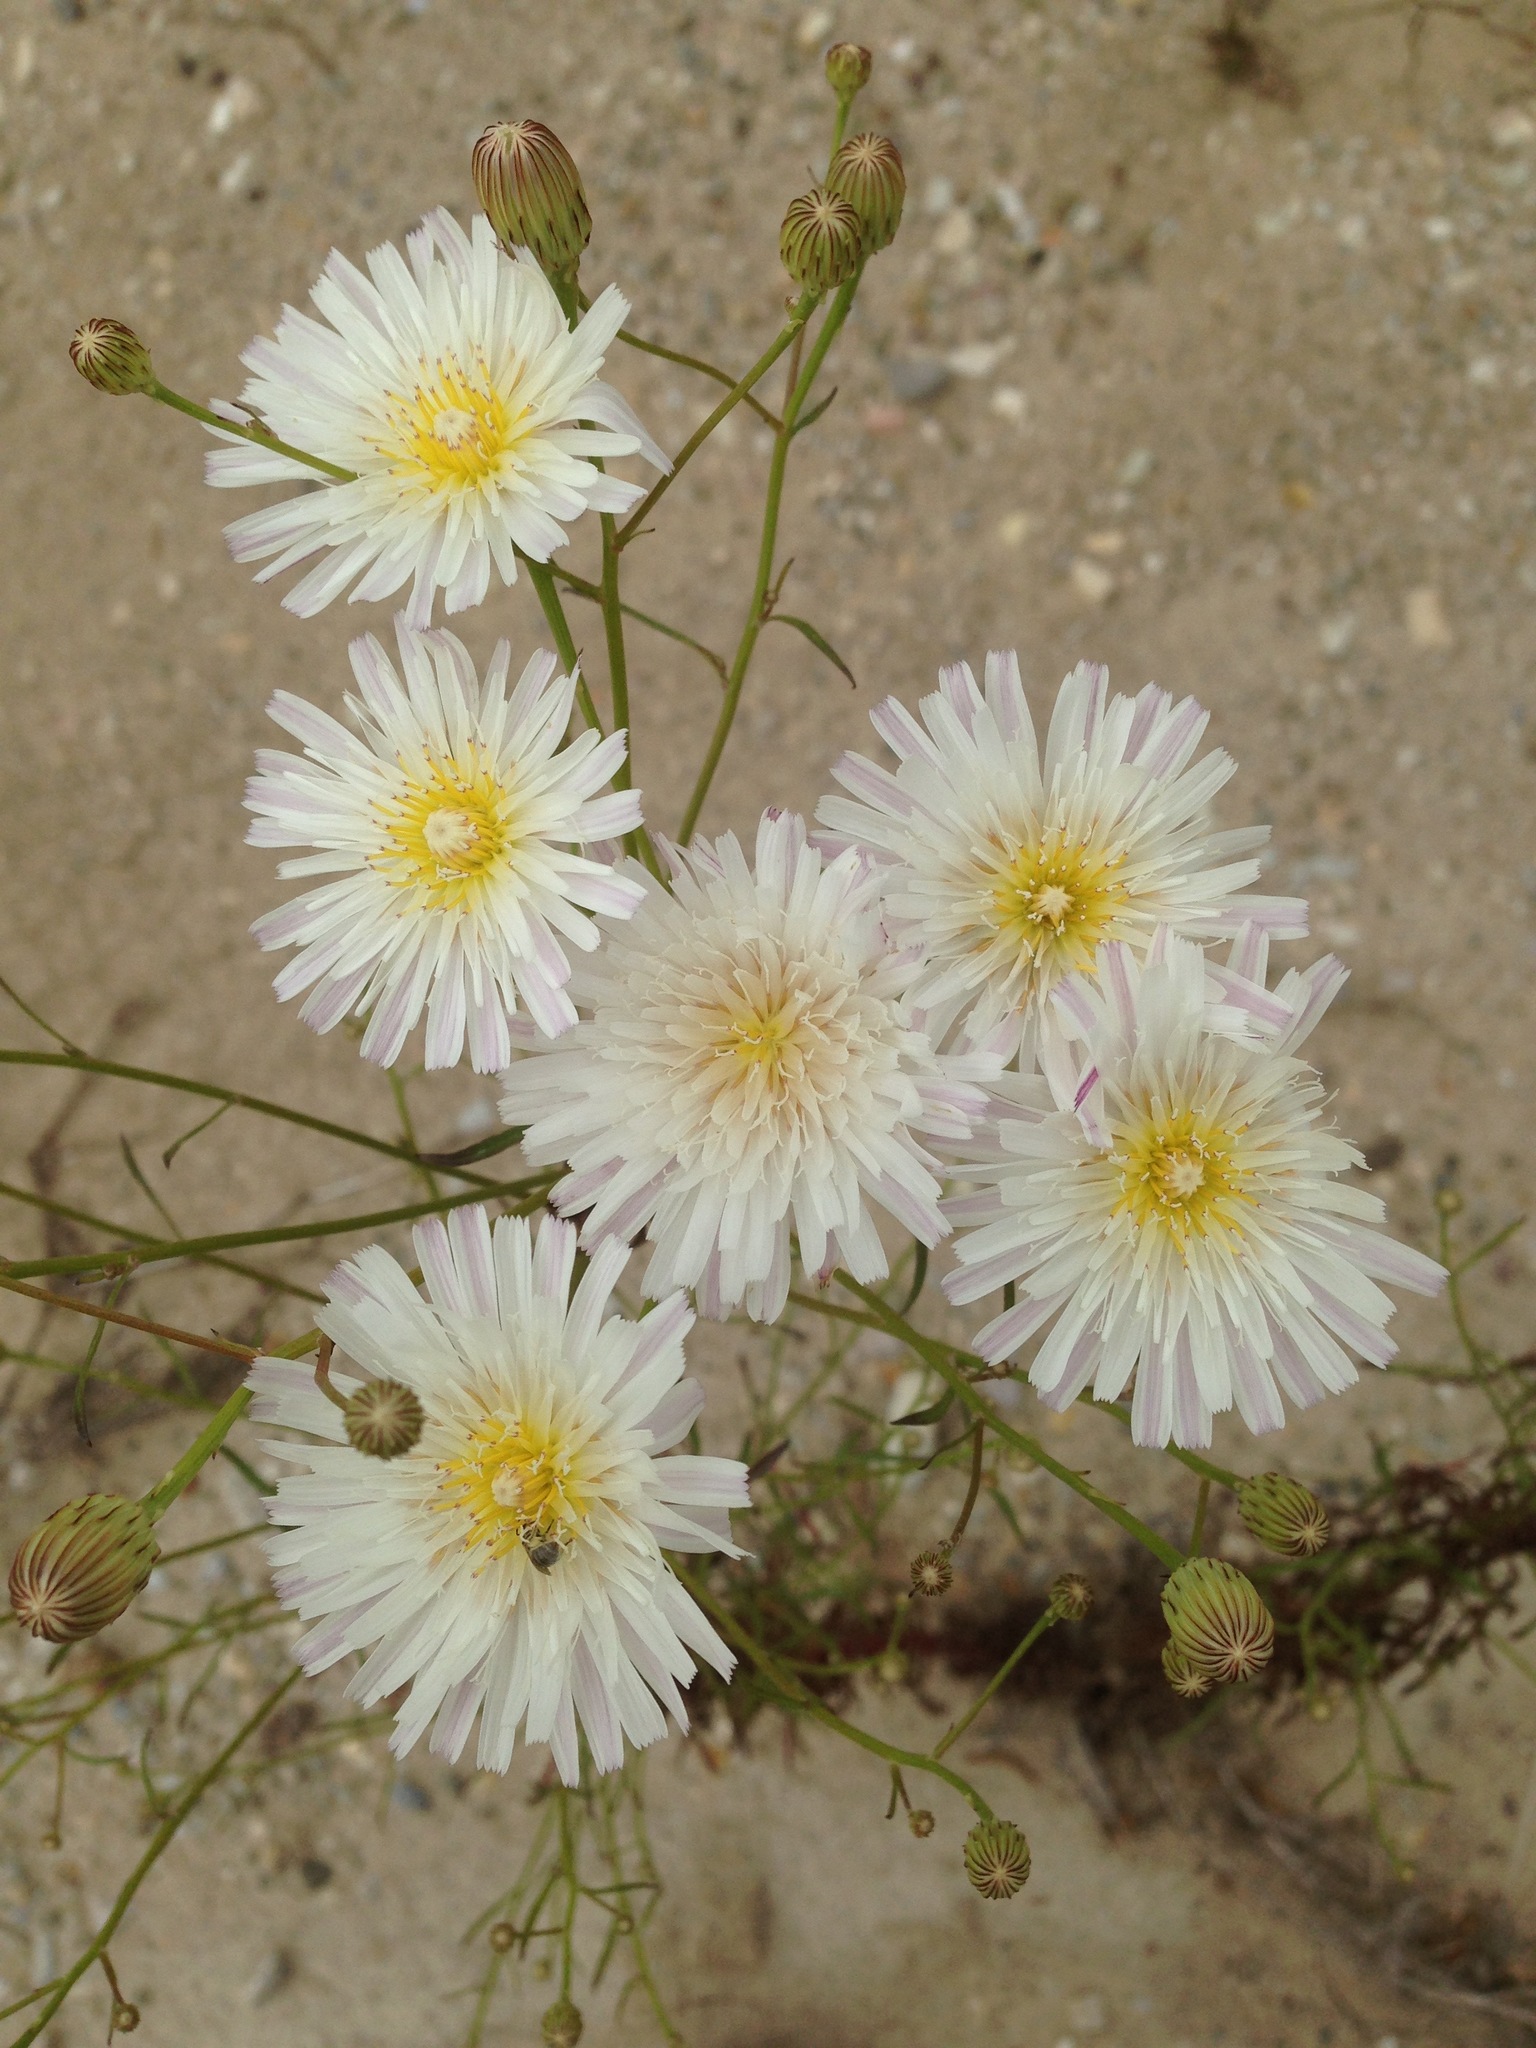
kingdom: Plantae
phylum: Tracheophyta
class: Magnoliopsida
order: Asterales
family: Asteraceae
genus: Malacothrix
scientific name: Malacothrix saxatilis
